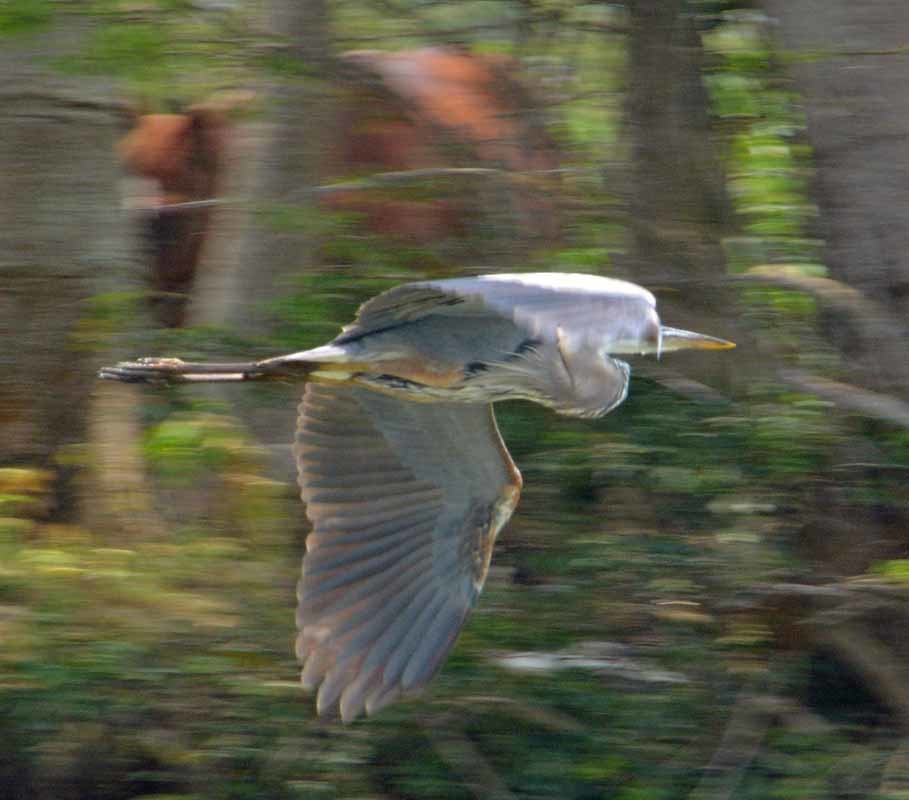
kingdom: Animalia
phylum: Chordata
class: Aves
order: Pelecaniformes
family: Ardeidae
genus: Ardea
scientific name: Ardea herodias
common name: Great blue heron
